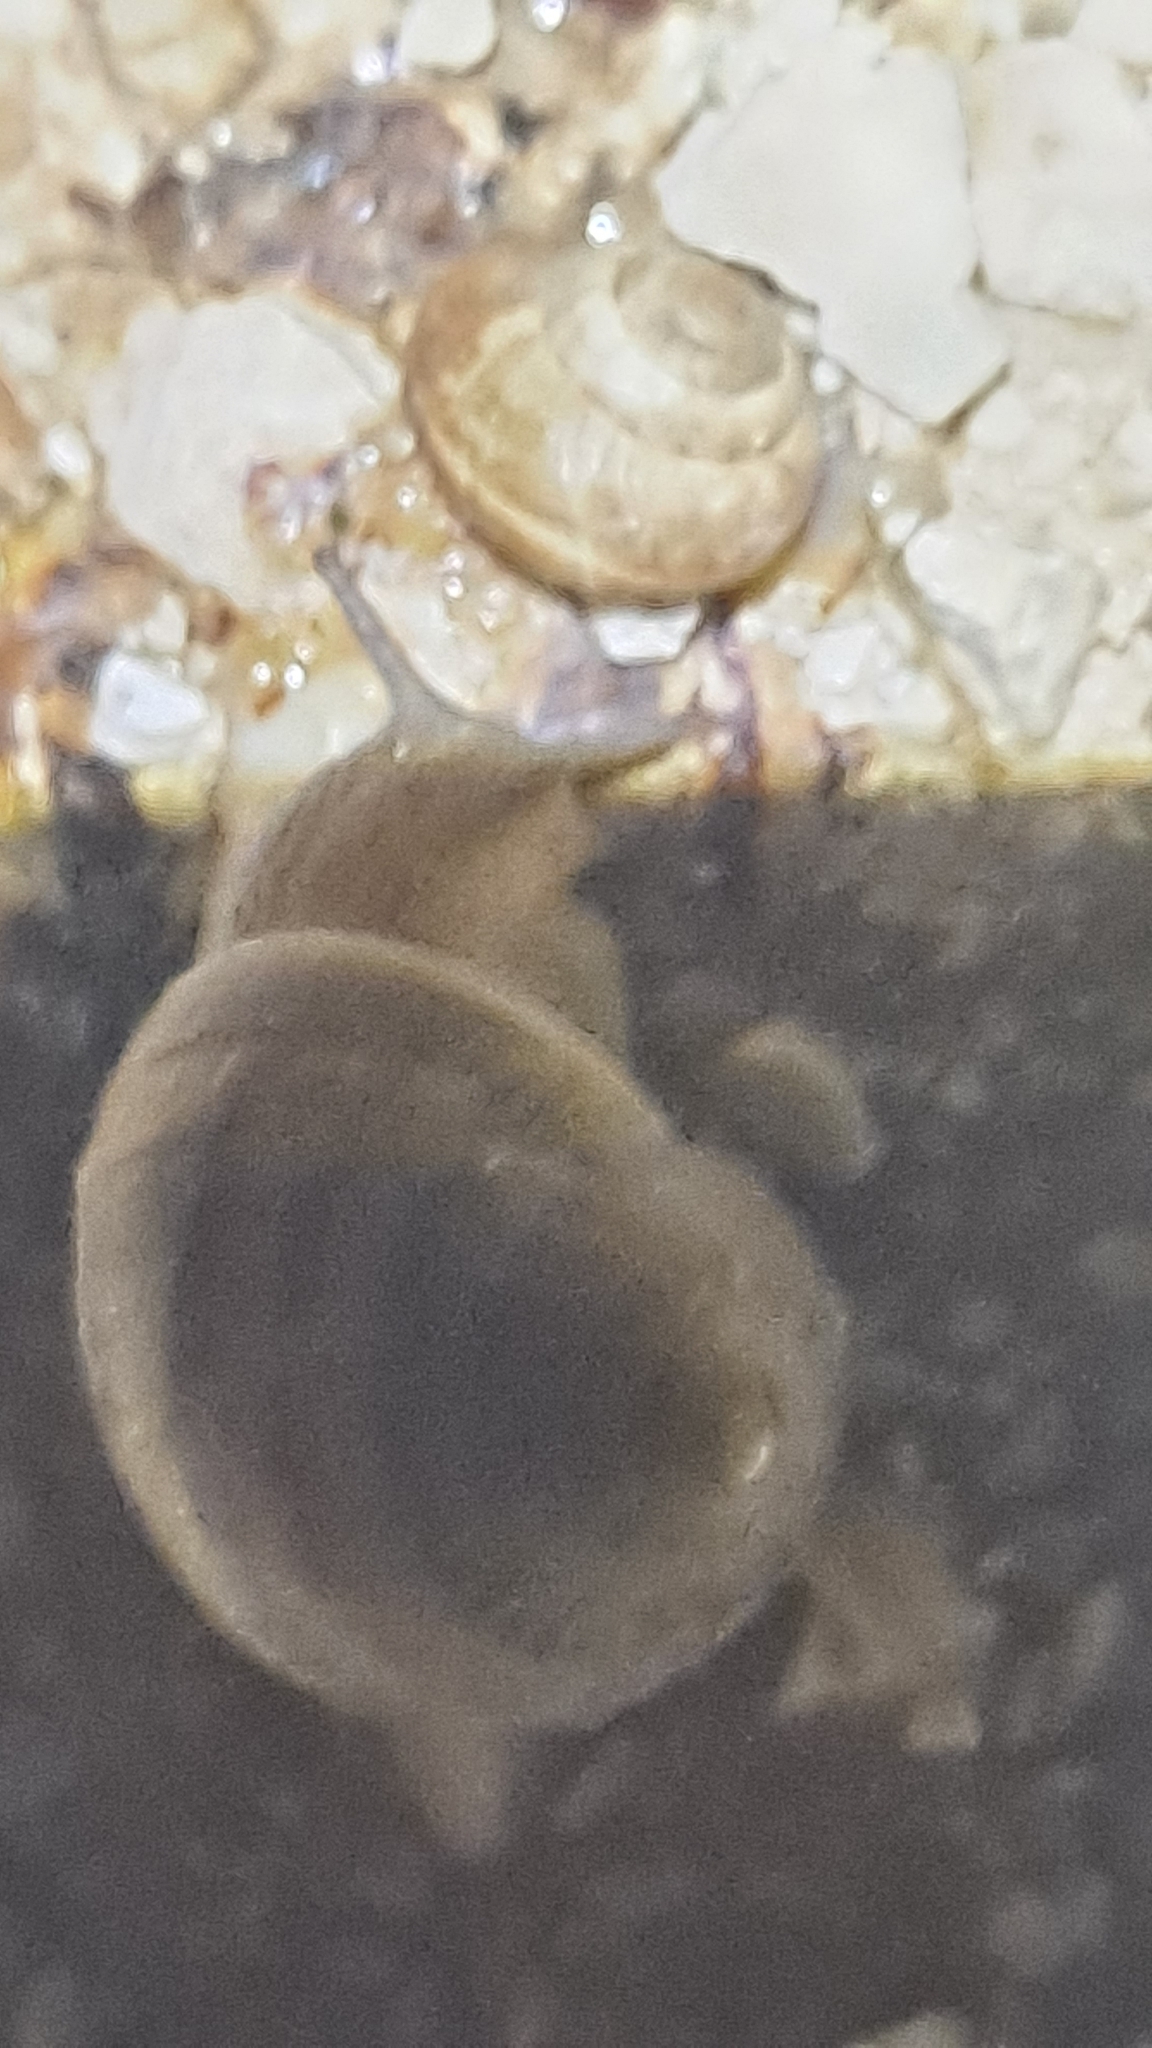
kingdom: Animalia
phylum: Mollusca
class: Gastropoda
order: Stylommatophora
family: Helicidae
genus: Cornu
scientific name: Cornu aspersum
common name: Brown garden snail
